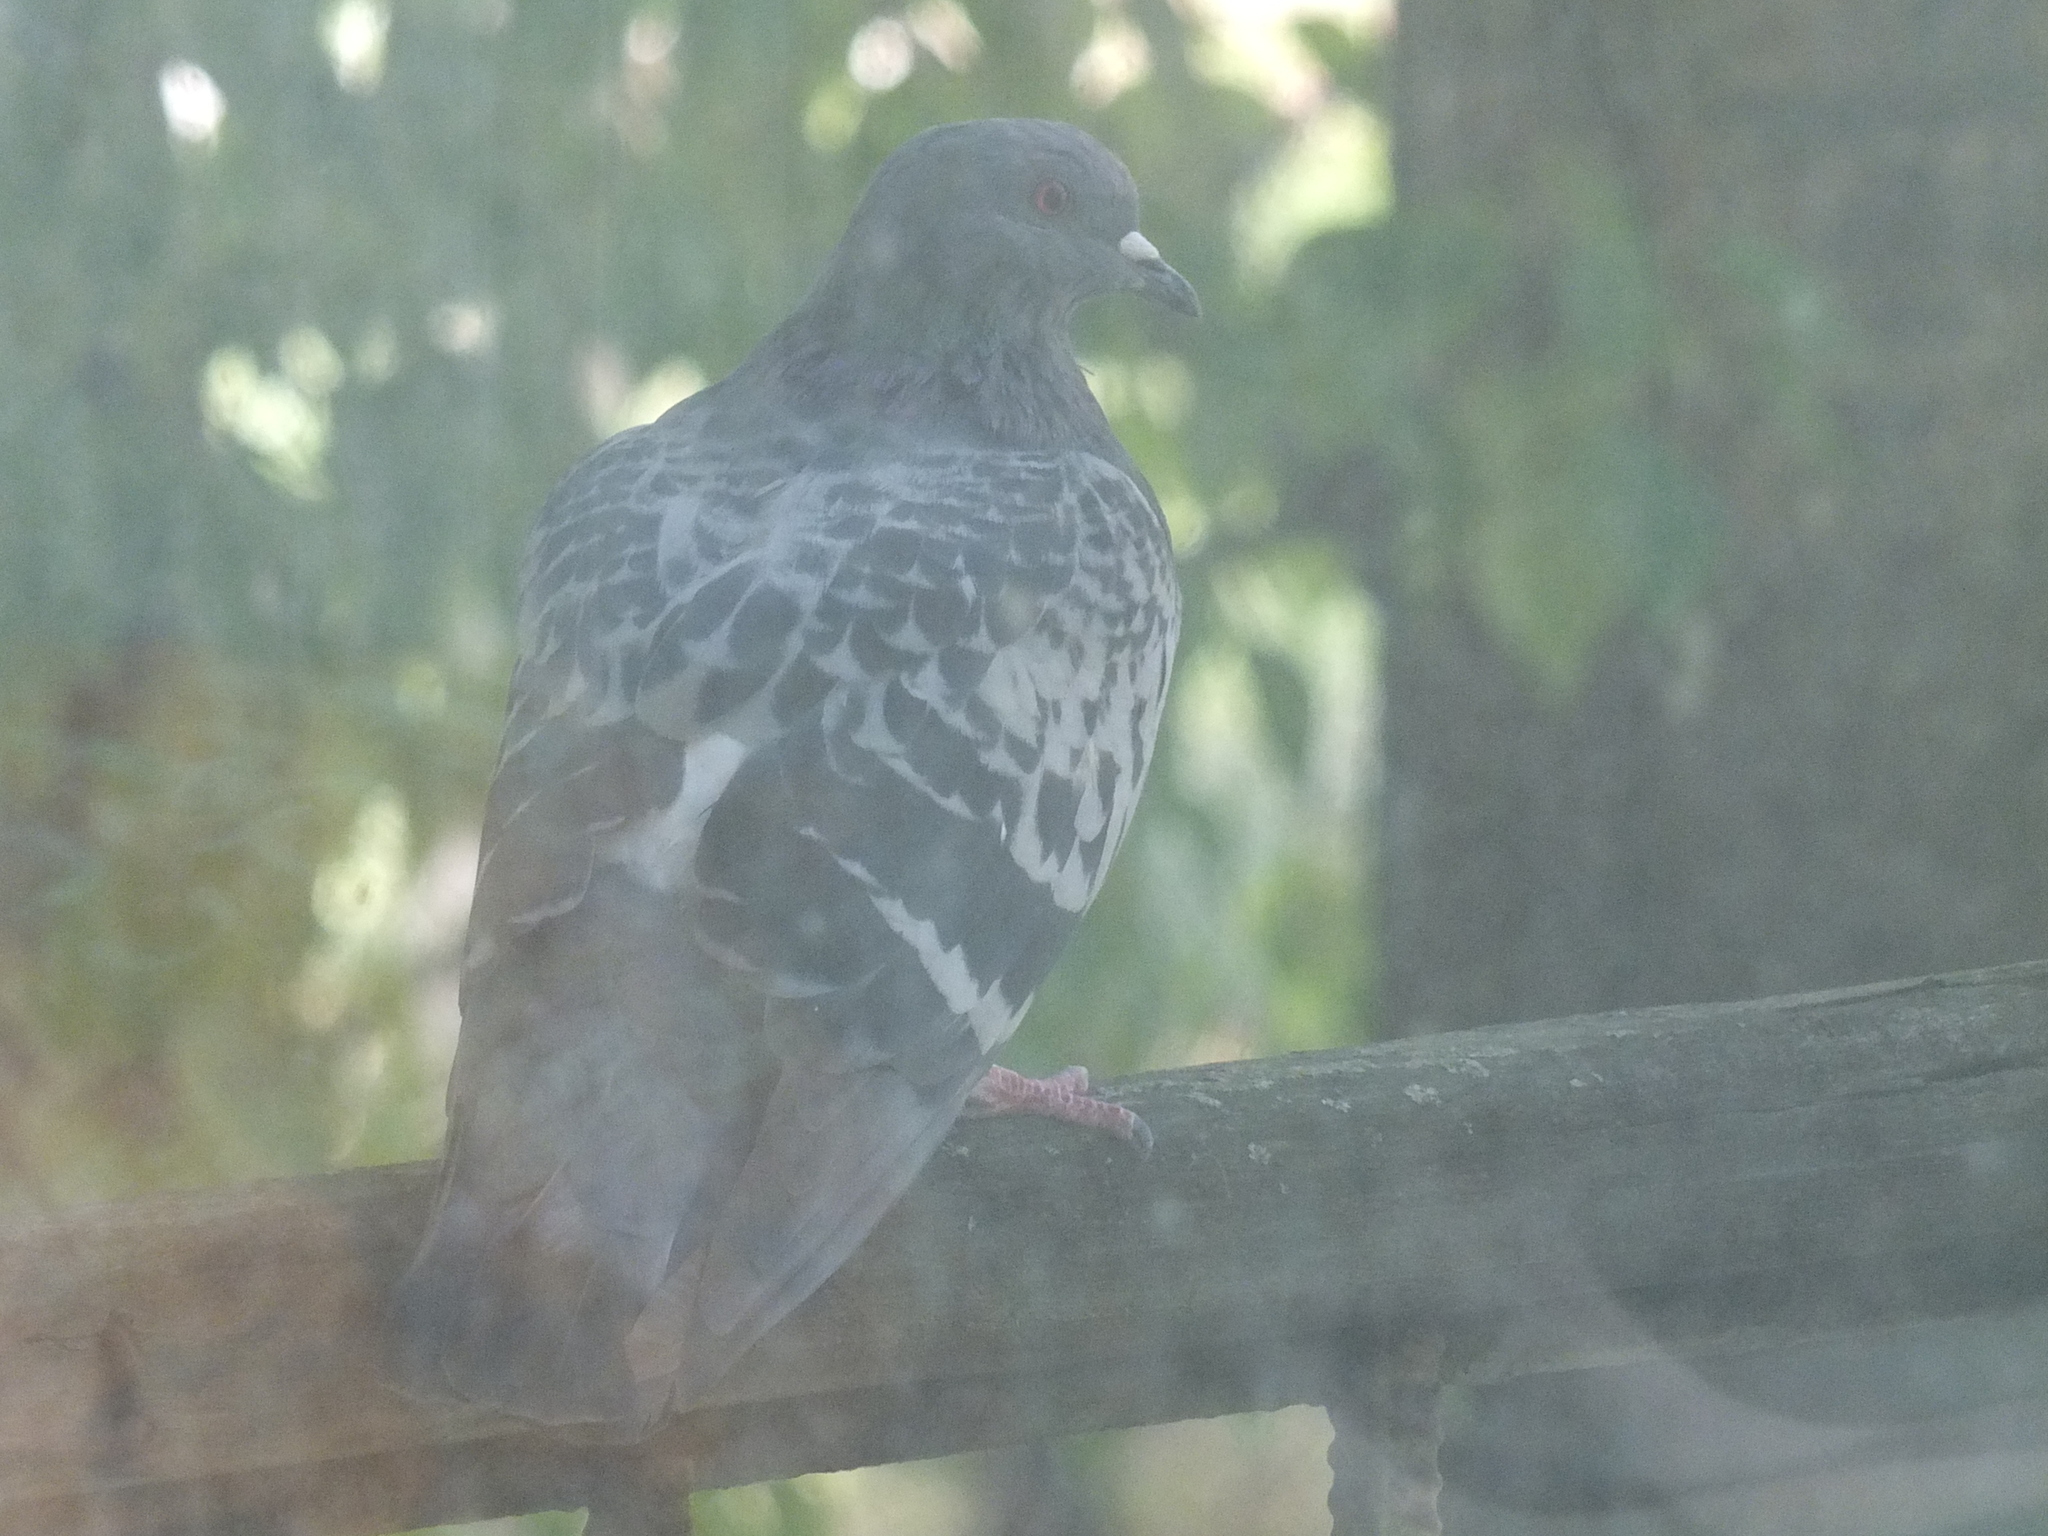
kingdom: Animalia
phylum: Chordata
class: Aves
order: Columbiformes
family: Columbidae
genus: Columba
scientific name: Columba livia
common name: Rock pigeon
